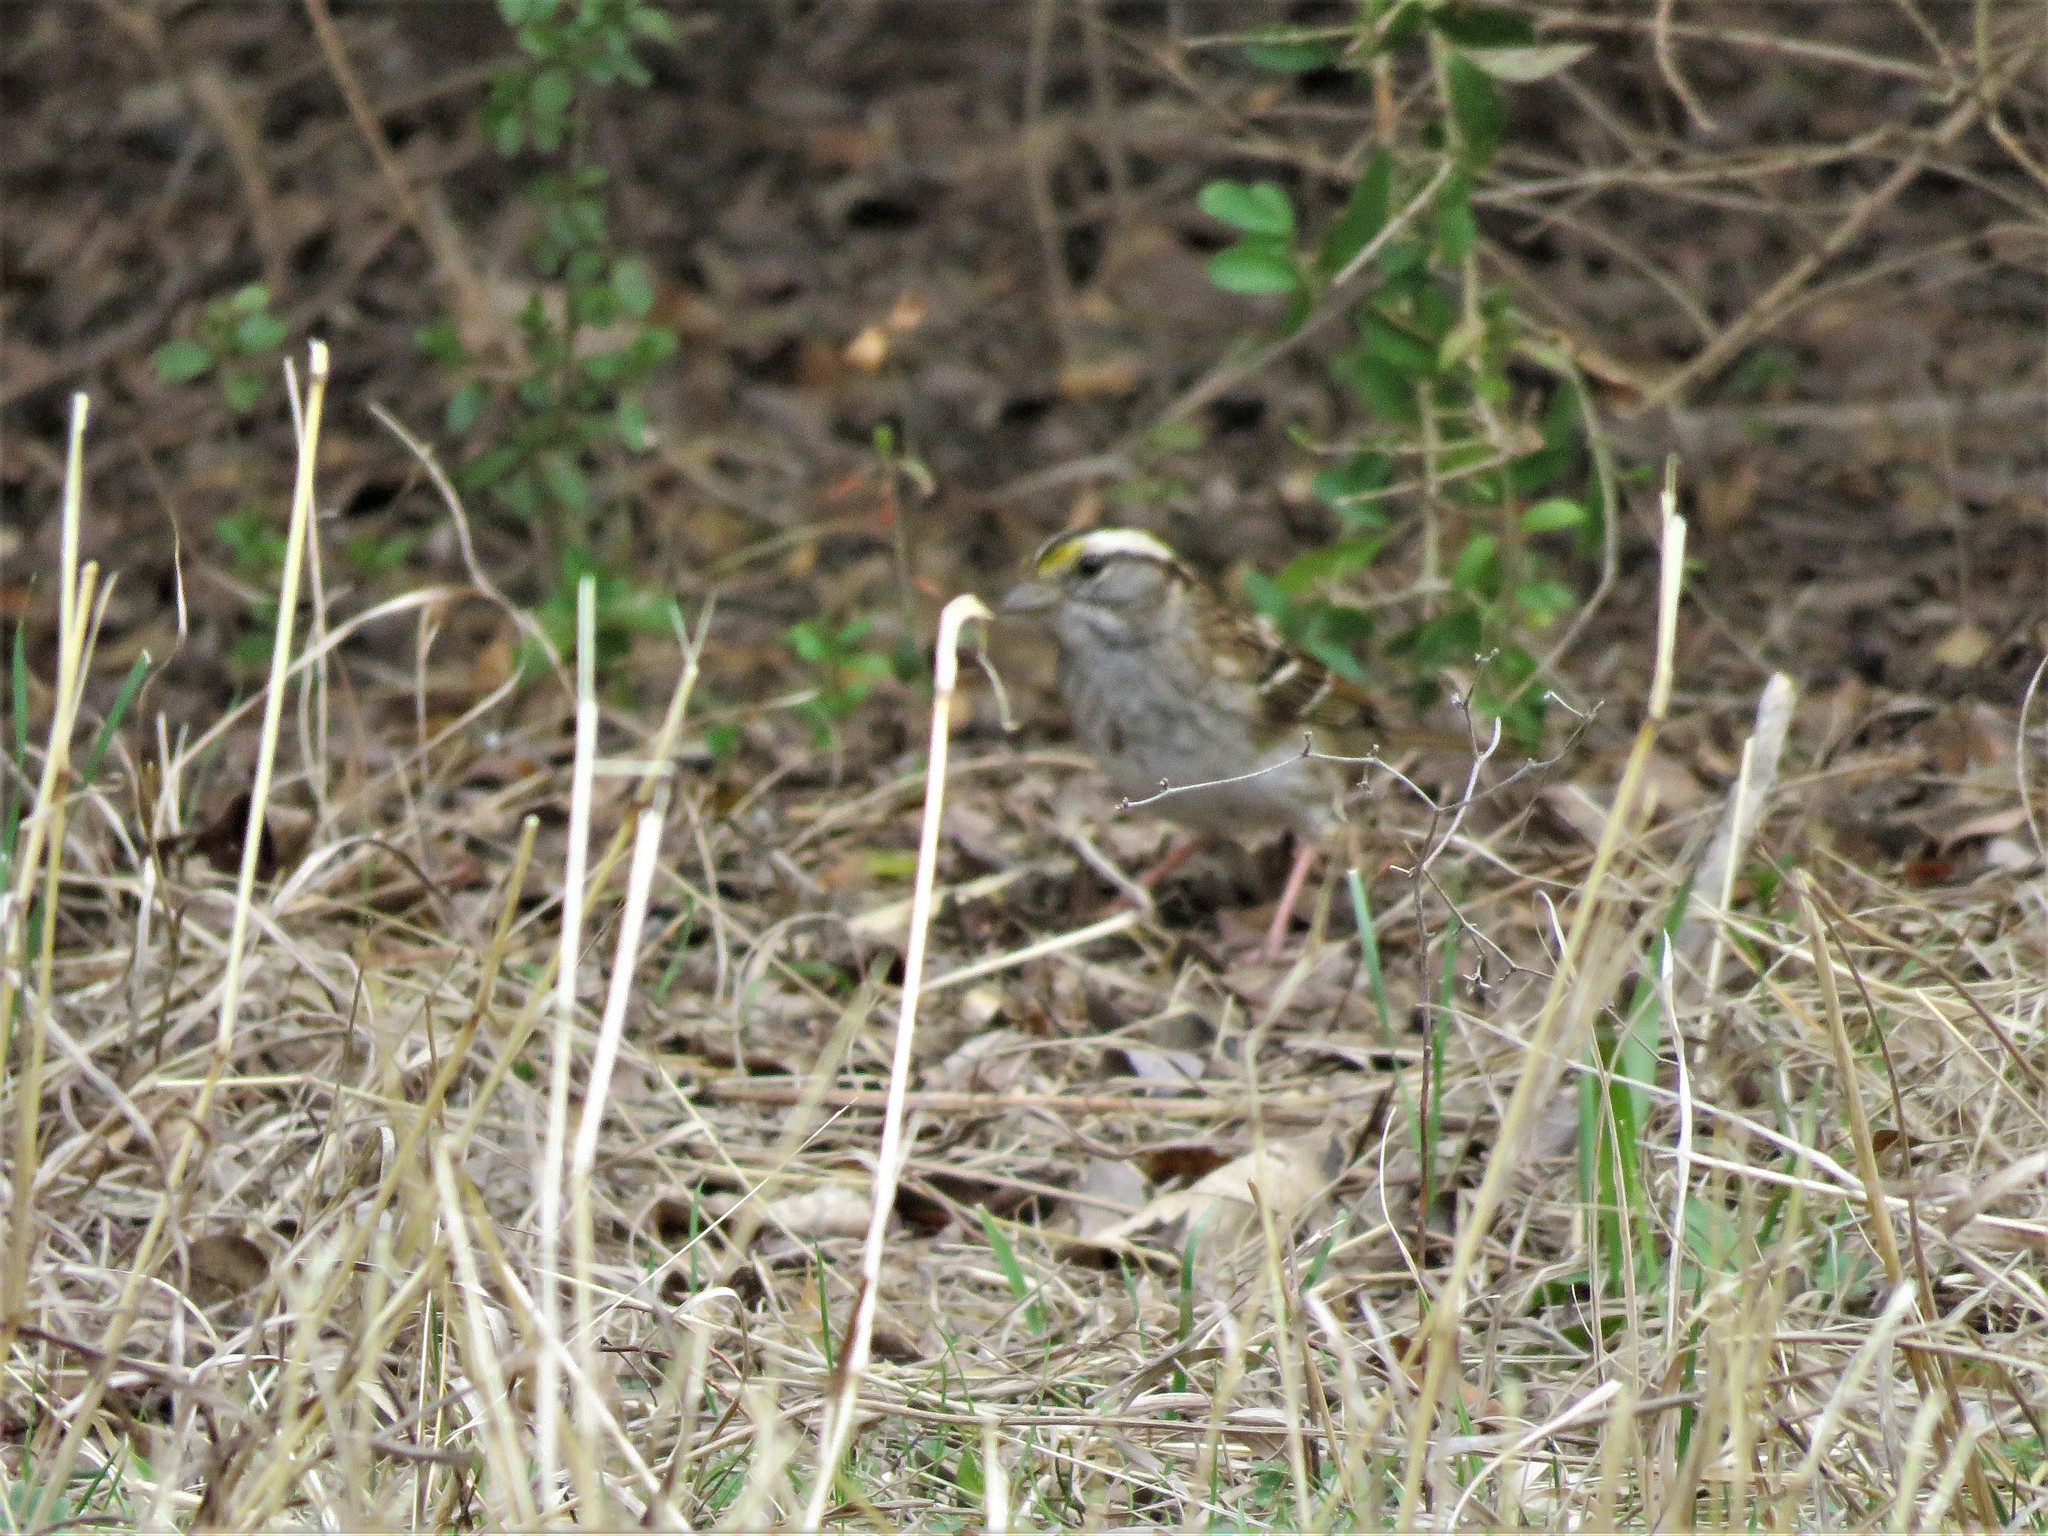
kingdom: Animalia
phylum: Chordata
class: Aves
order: Passeriformes
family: Passerellidae
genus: Zonotrichia
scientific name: Zonotrichia albicollis
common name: White-throated sparrow
